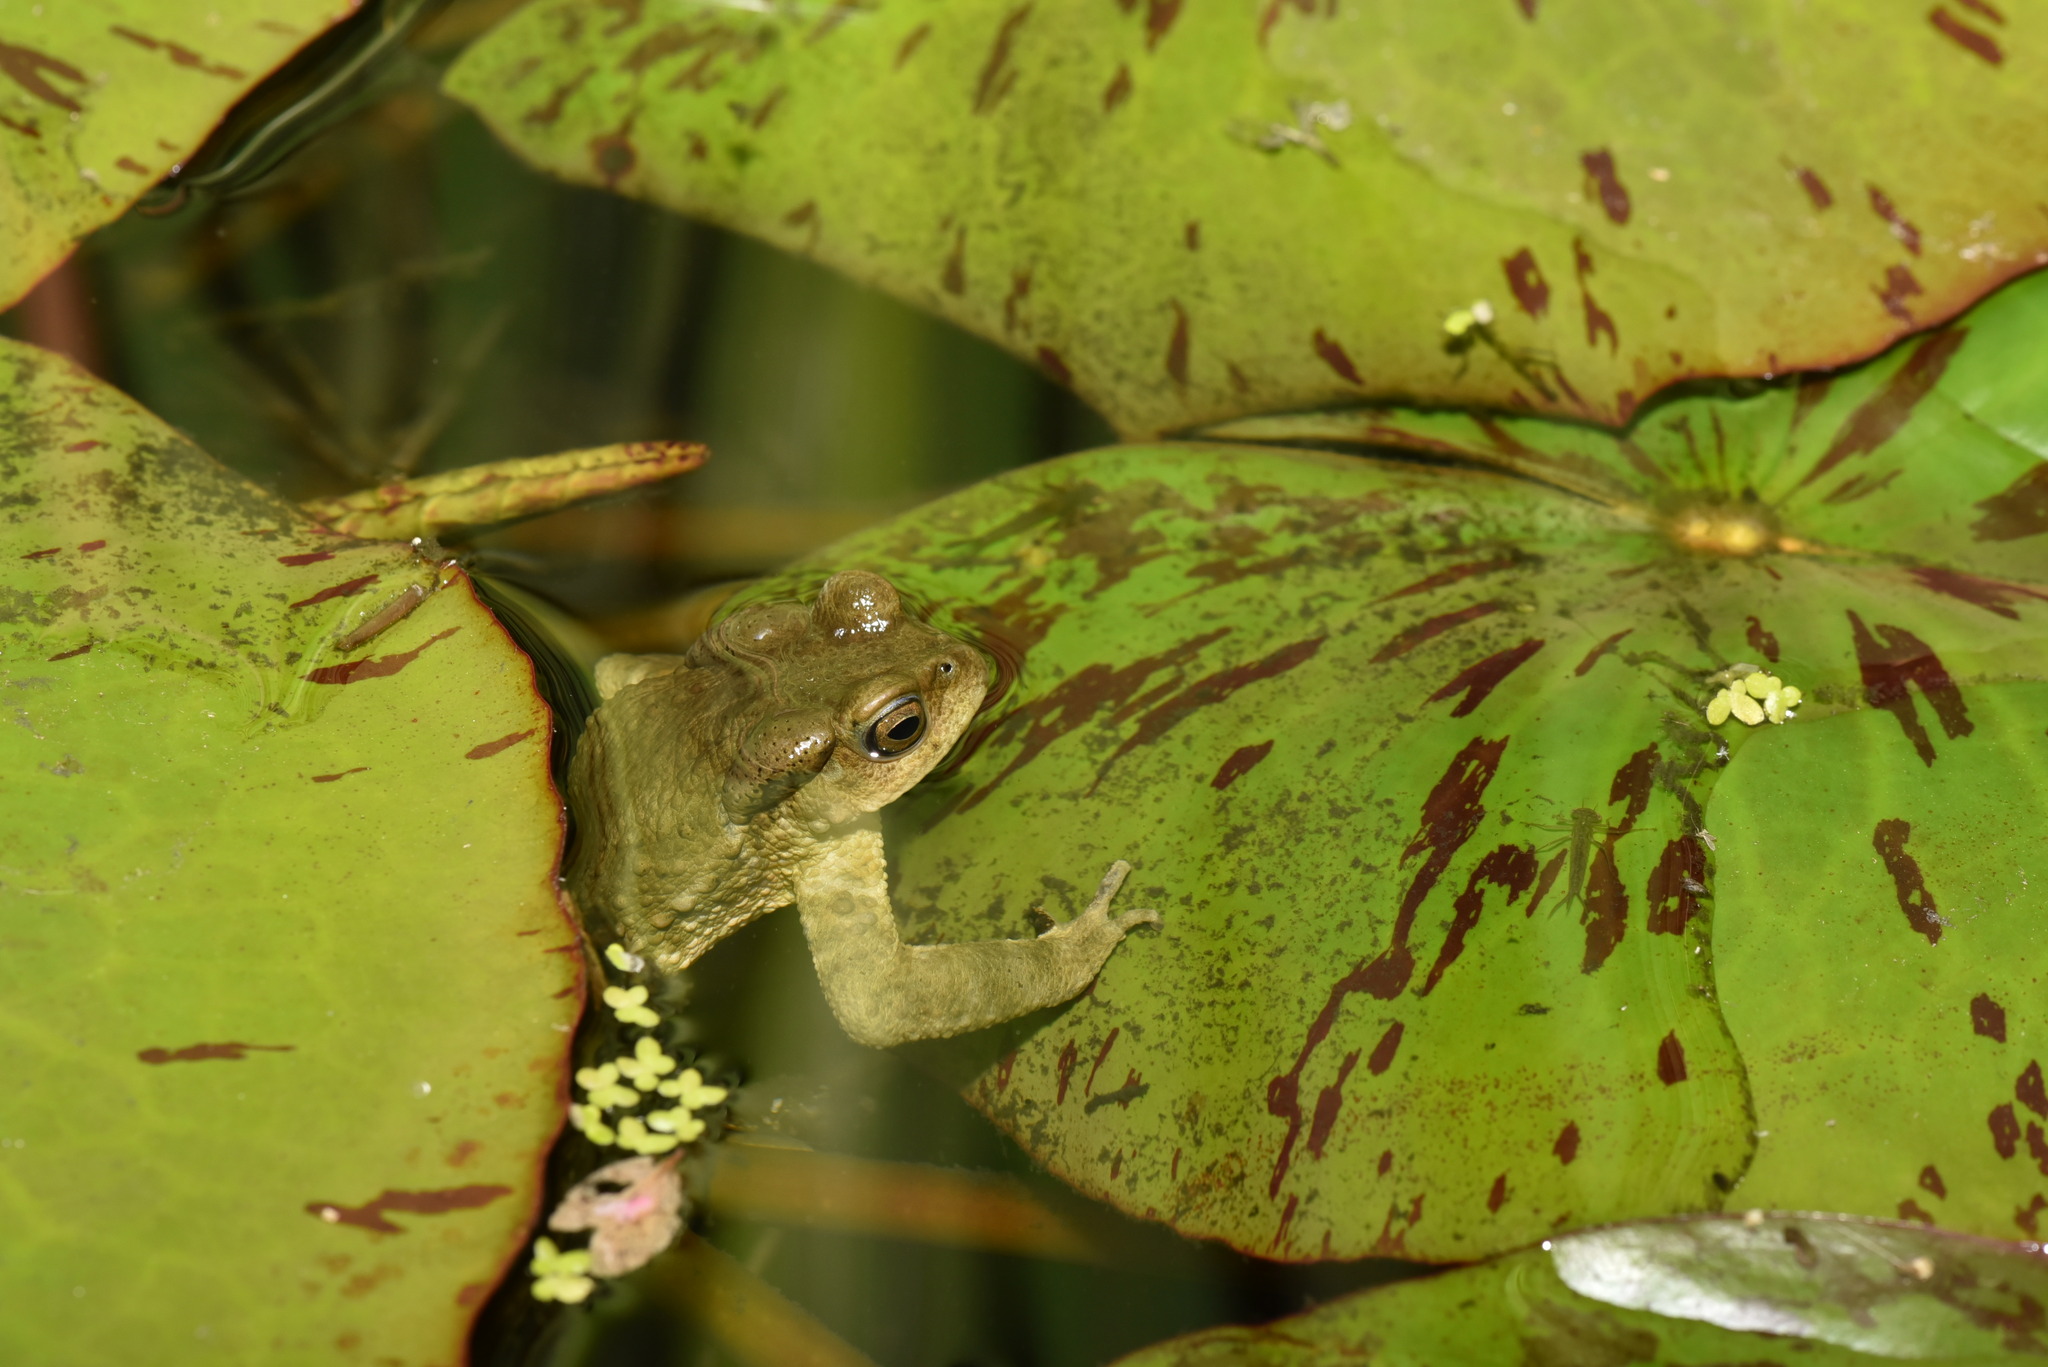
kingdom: Animalia
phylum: Chordata
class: Amphibia
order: Anura
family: Bufonidae
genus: Bufo
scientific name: Bufo bankorensis
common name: Bankor toad
